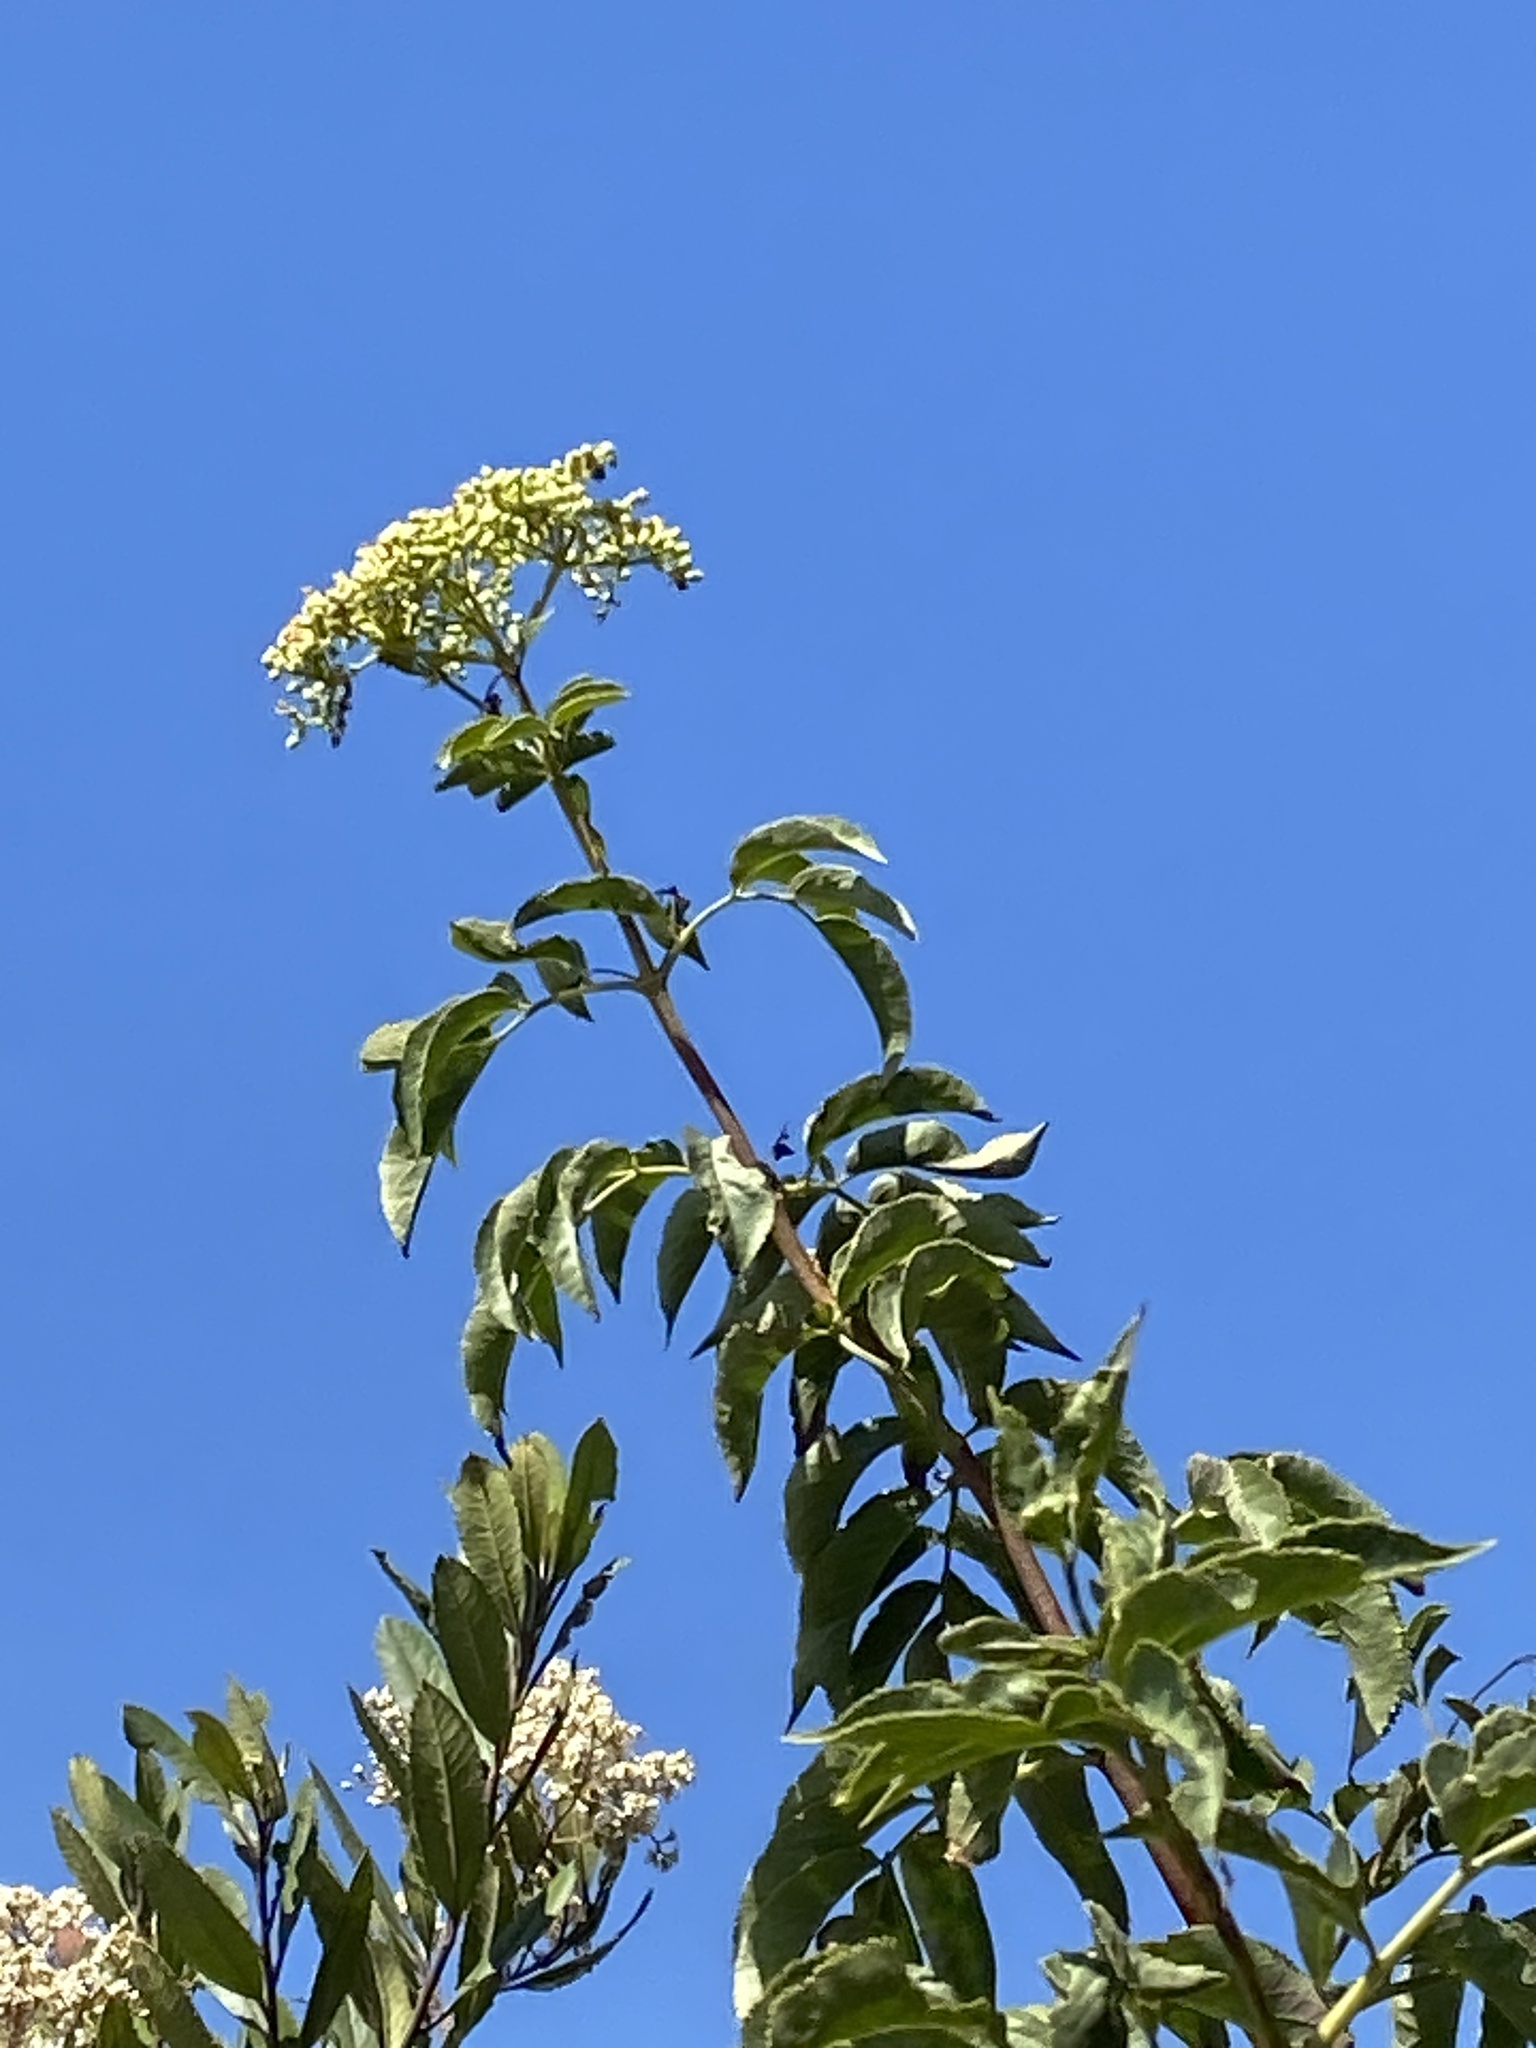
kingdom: Plantae
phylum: Tracheophyta
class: Magnoliopsida
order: Dipsacales
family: Viburnaceae
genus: Sambucus
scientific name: Sambucus cerulea
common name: Blue elder
